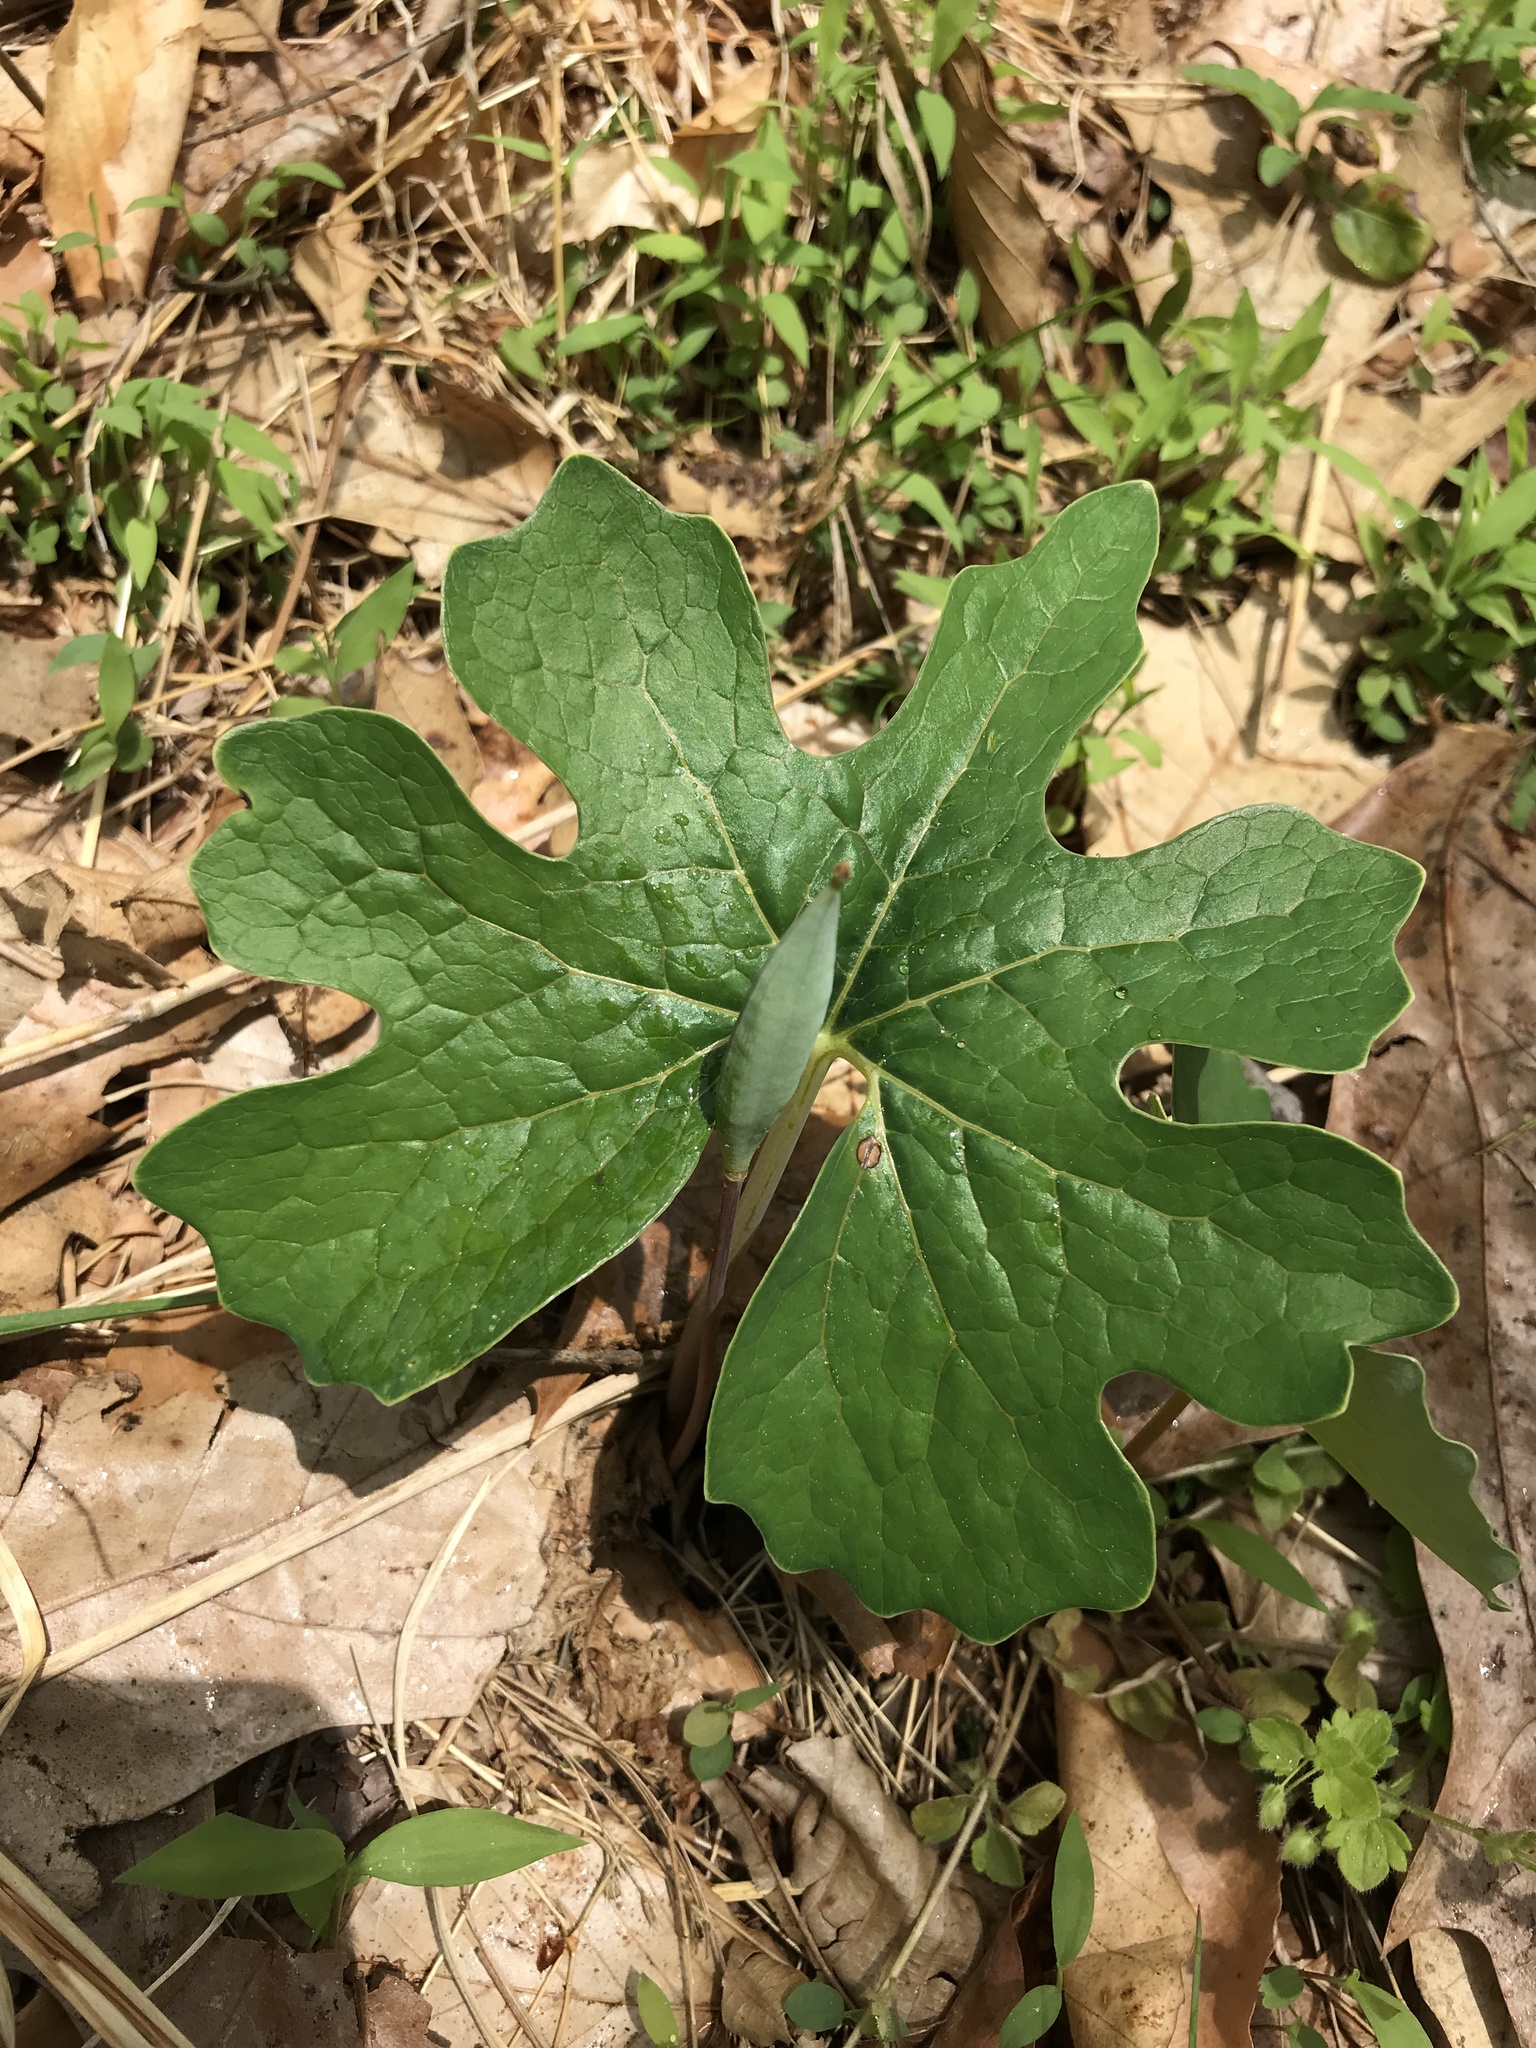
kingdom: Plantae
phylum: Tracheophyta
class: Magnoliopsida
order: Ranunculales
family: Papaveraceae
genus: Sanguinaria
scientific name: Sanguinaria canadensis
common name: Bloodroot
